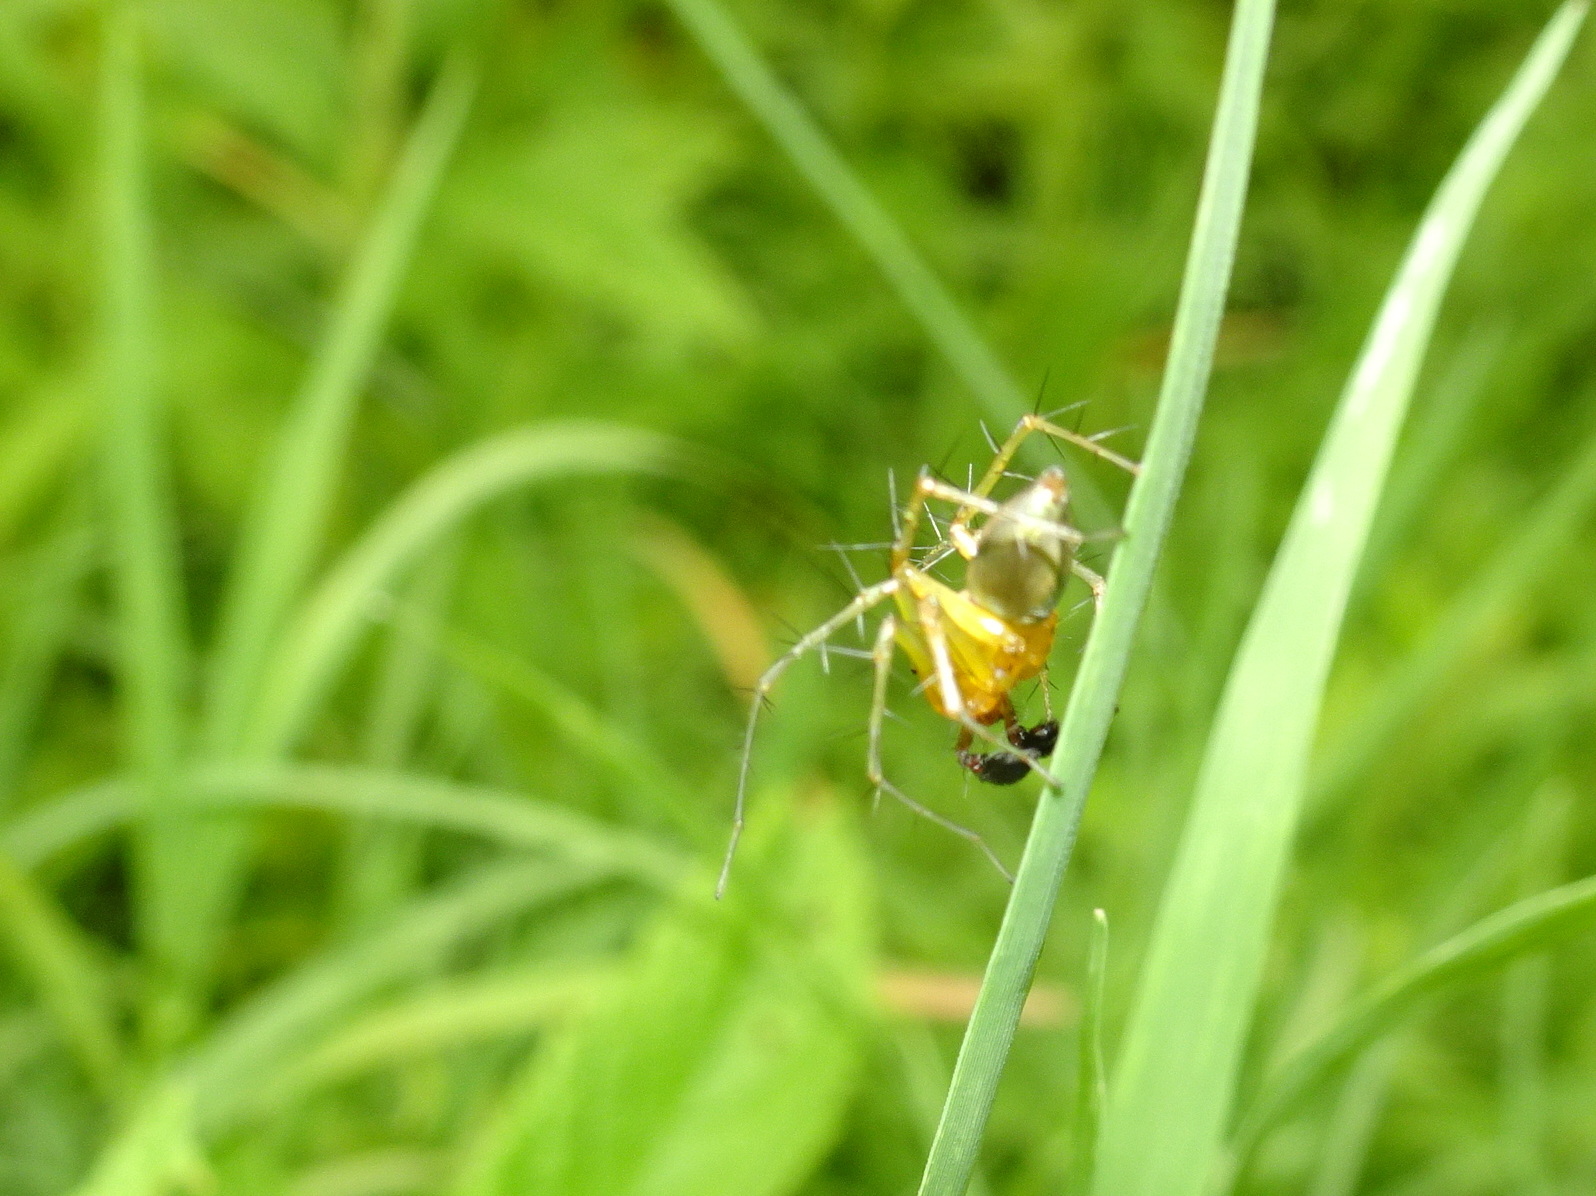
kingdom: Animalia
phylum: Arthropoda
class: Arachnida
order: Araneae
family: Oxyopidae
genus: Oxyopes
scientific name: Oxyopes salticus
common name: Lynx spiders
